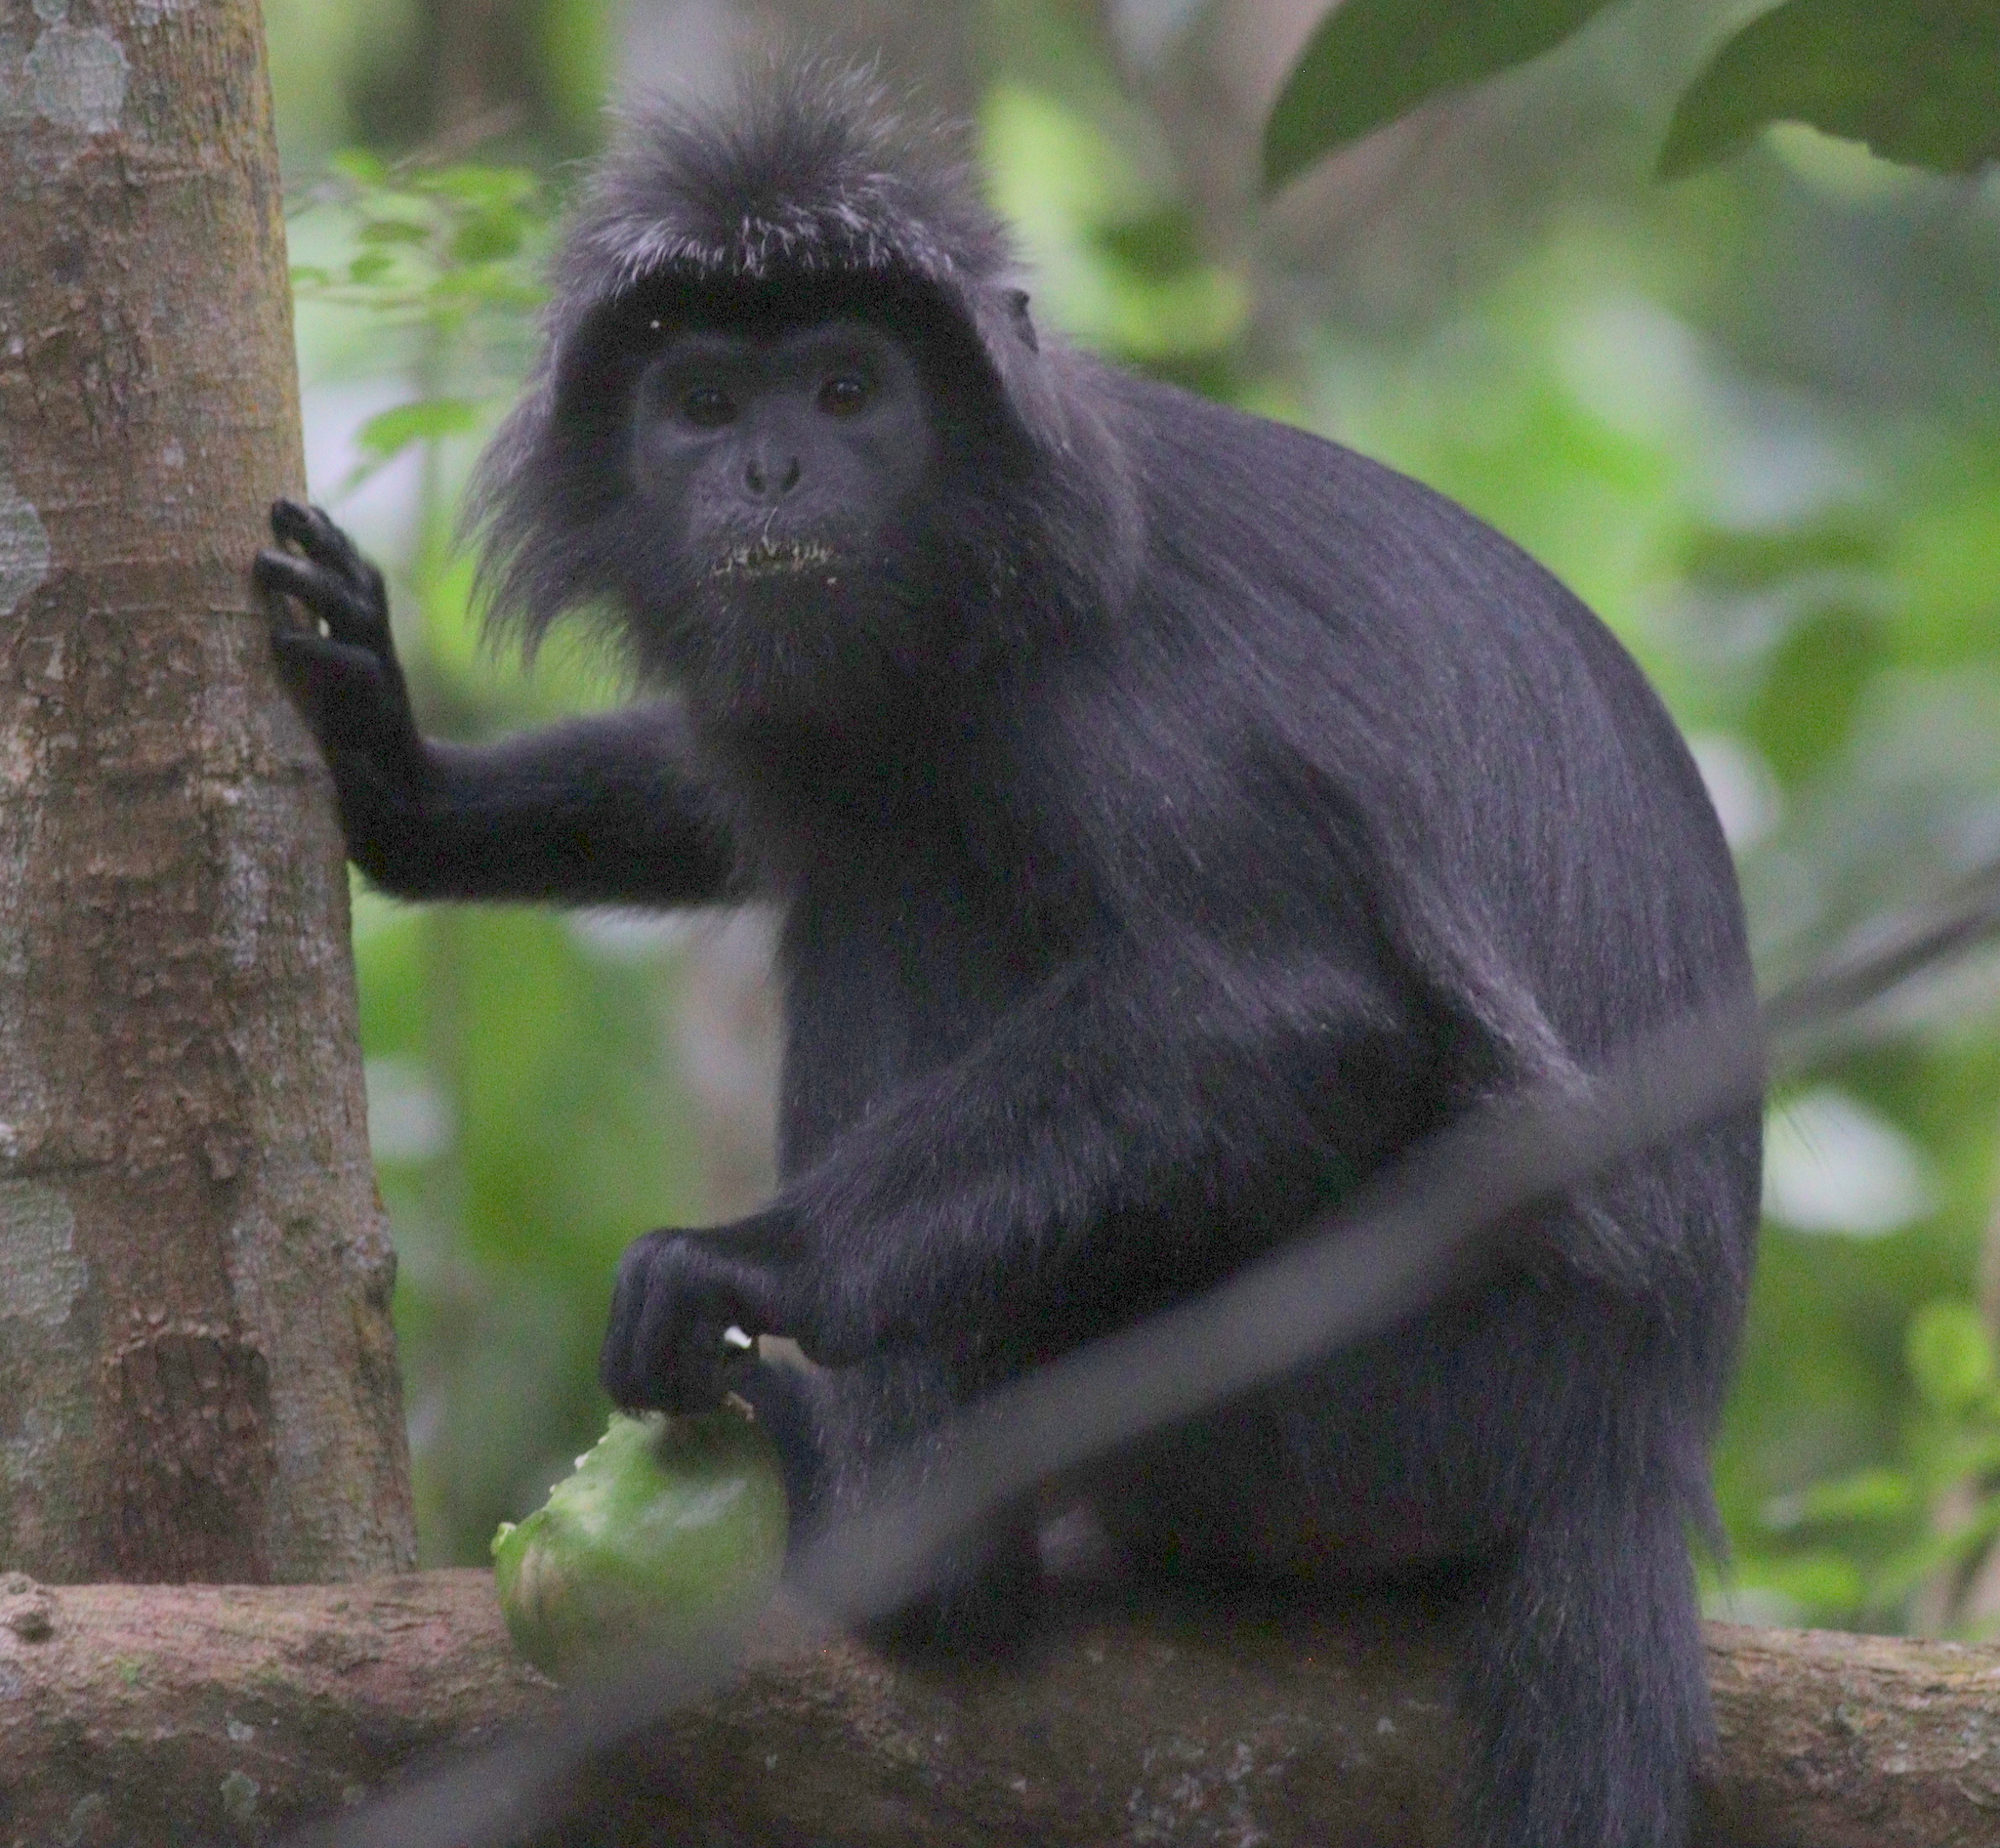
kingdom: Animalia
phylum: Chordata
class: Mammalia
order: Primates
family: Cercopithecidae
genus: Trachypithecus
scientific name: Trachypithecus auratus
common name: Javan lutung
